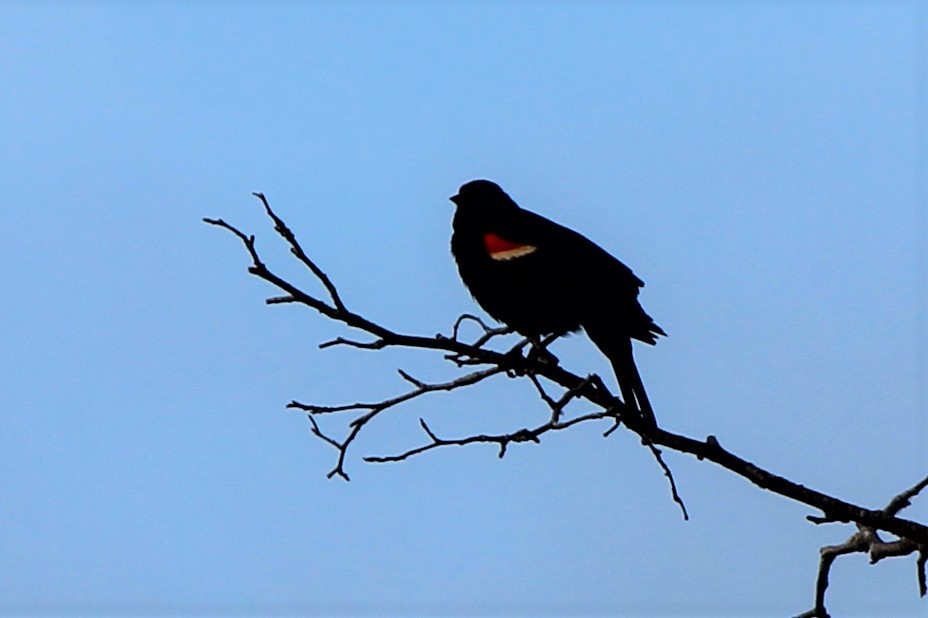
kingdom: Animalia
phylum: Chordata
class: Aves
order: Passeriformes
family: Icteridae
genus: Agelaius
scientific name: Agelaius phoeniceus
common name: Red-winged blackbird
